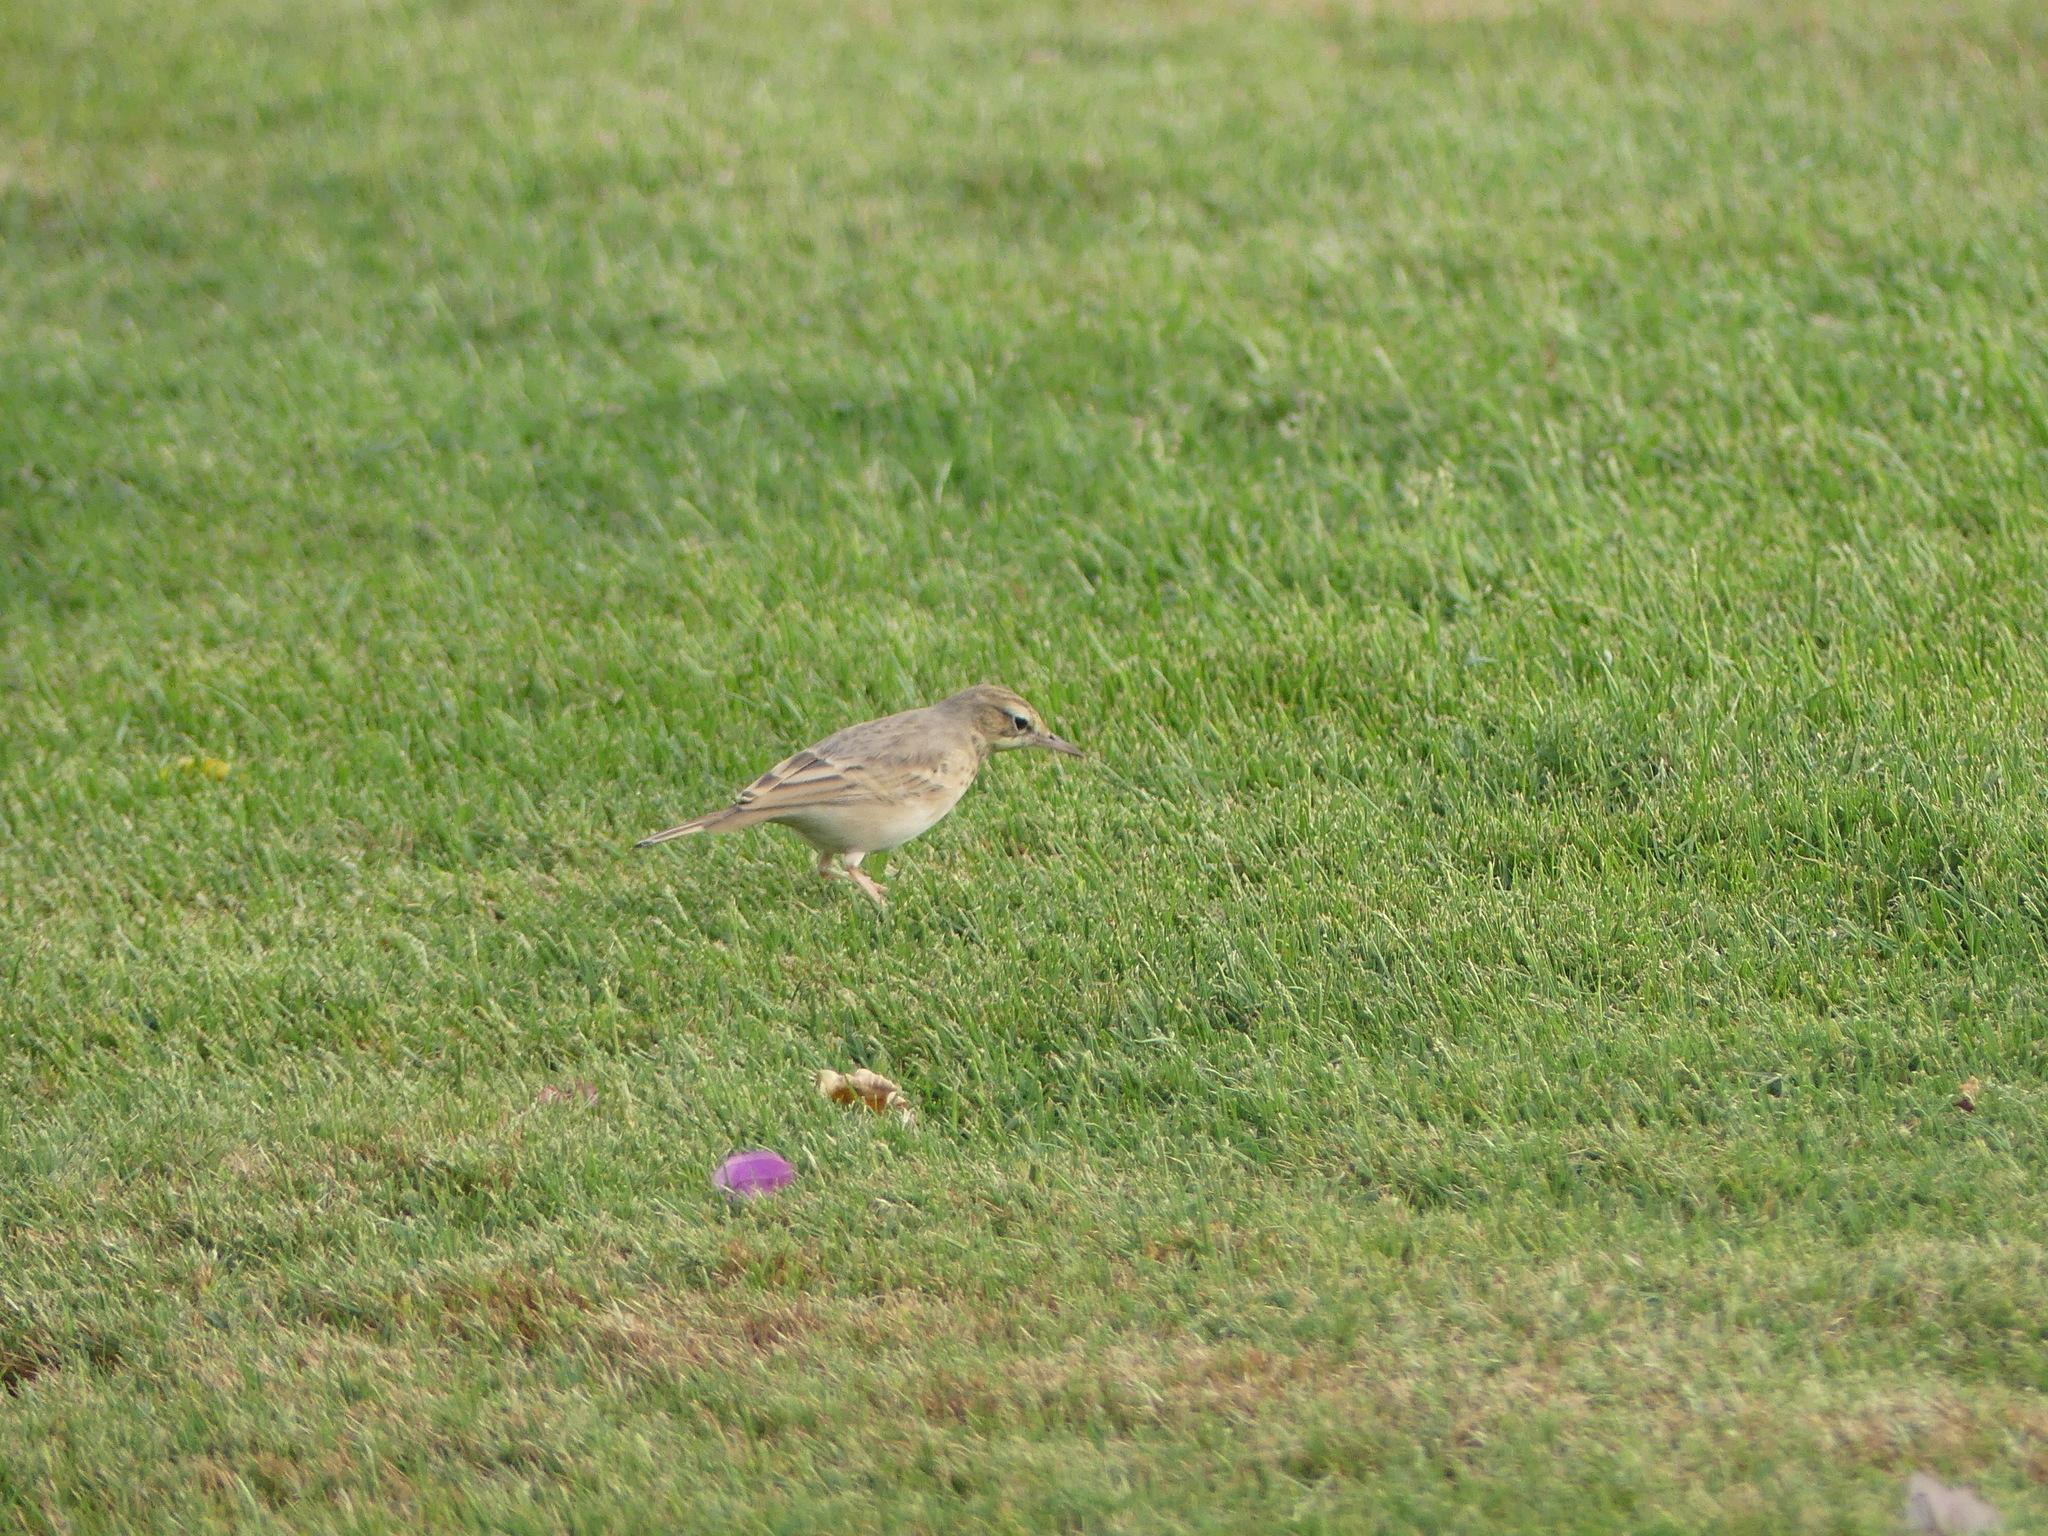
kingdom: Animalia
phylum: Chordata
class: Aves
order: Passeriformes
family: Motacillidae
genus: Anthus
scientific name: Anthus campestris
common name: Tawny pipit
